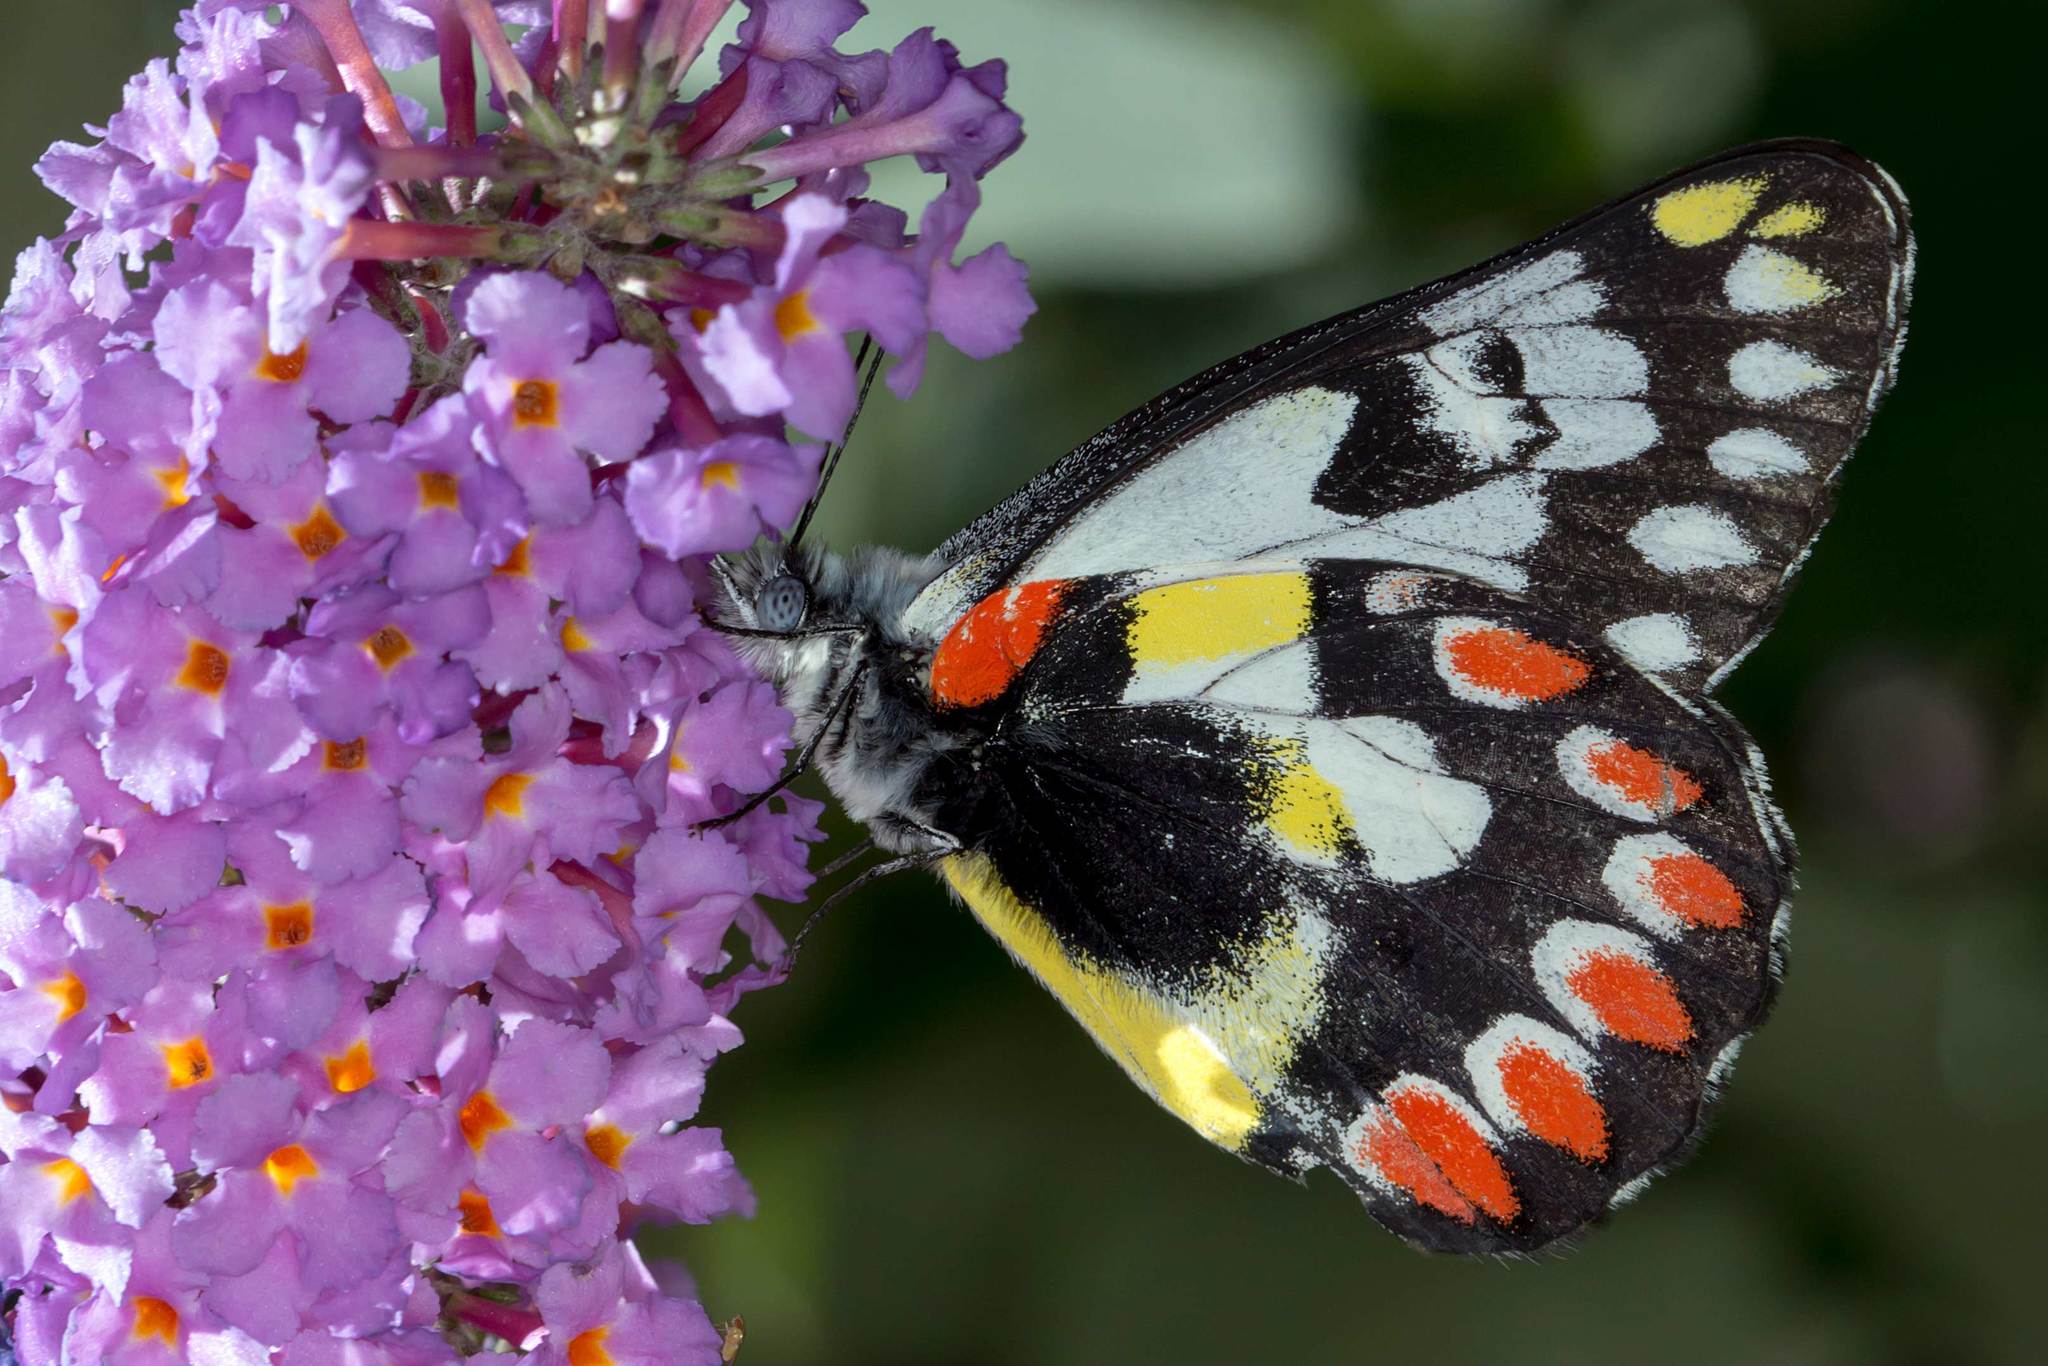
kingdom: Animalia
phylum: Arthropoda
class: Insecta
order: Lepidoptera
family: Pieridae
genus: Delias
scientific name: Delias aganippe
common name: Red-spotted jezebel
